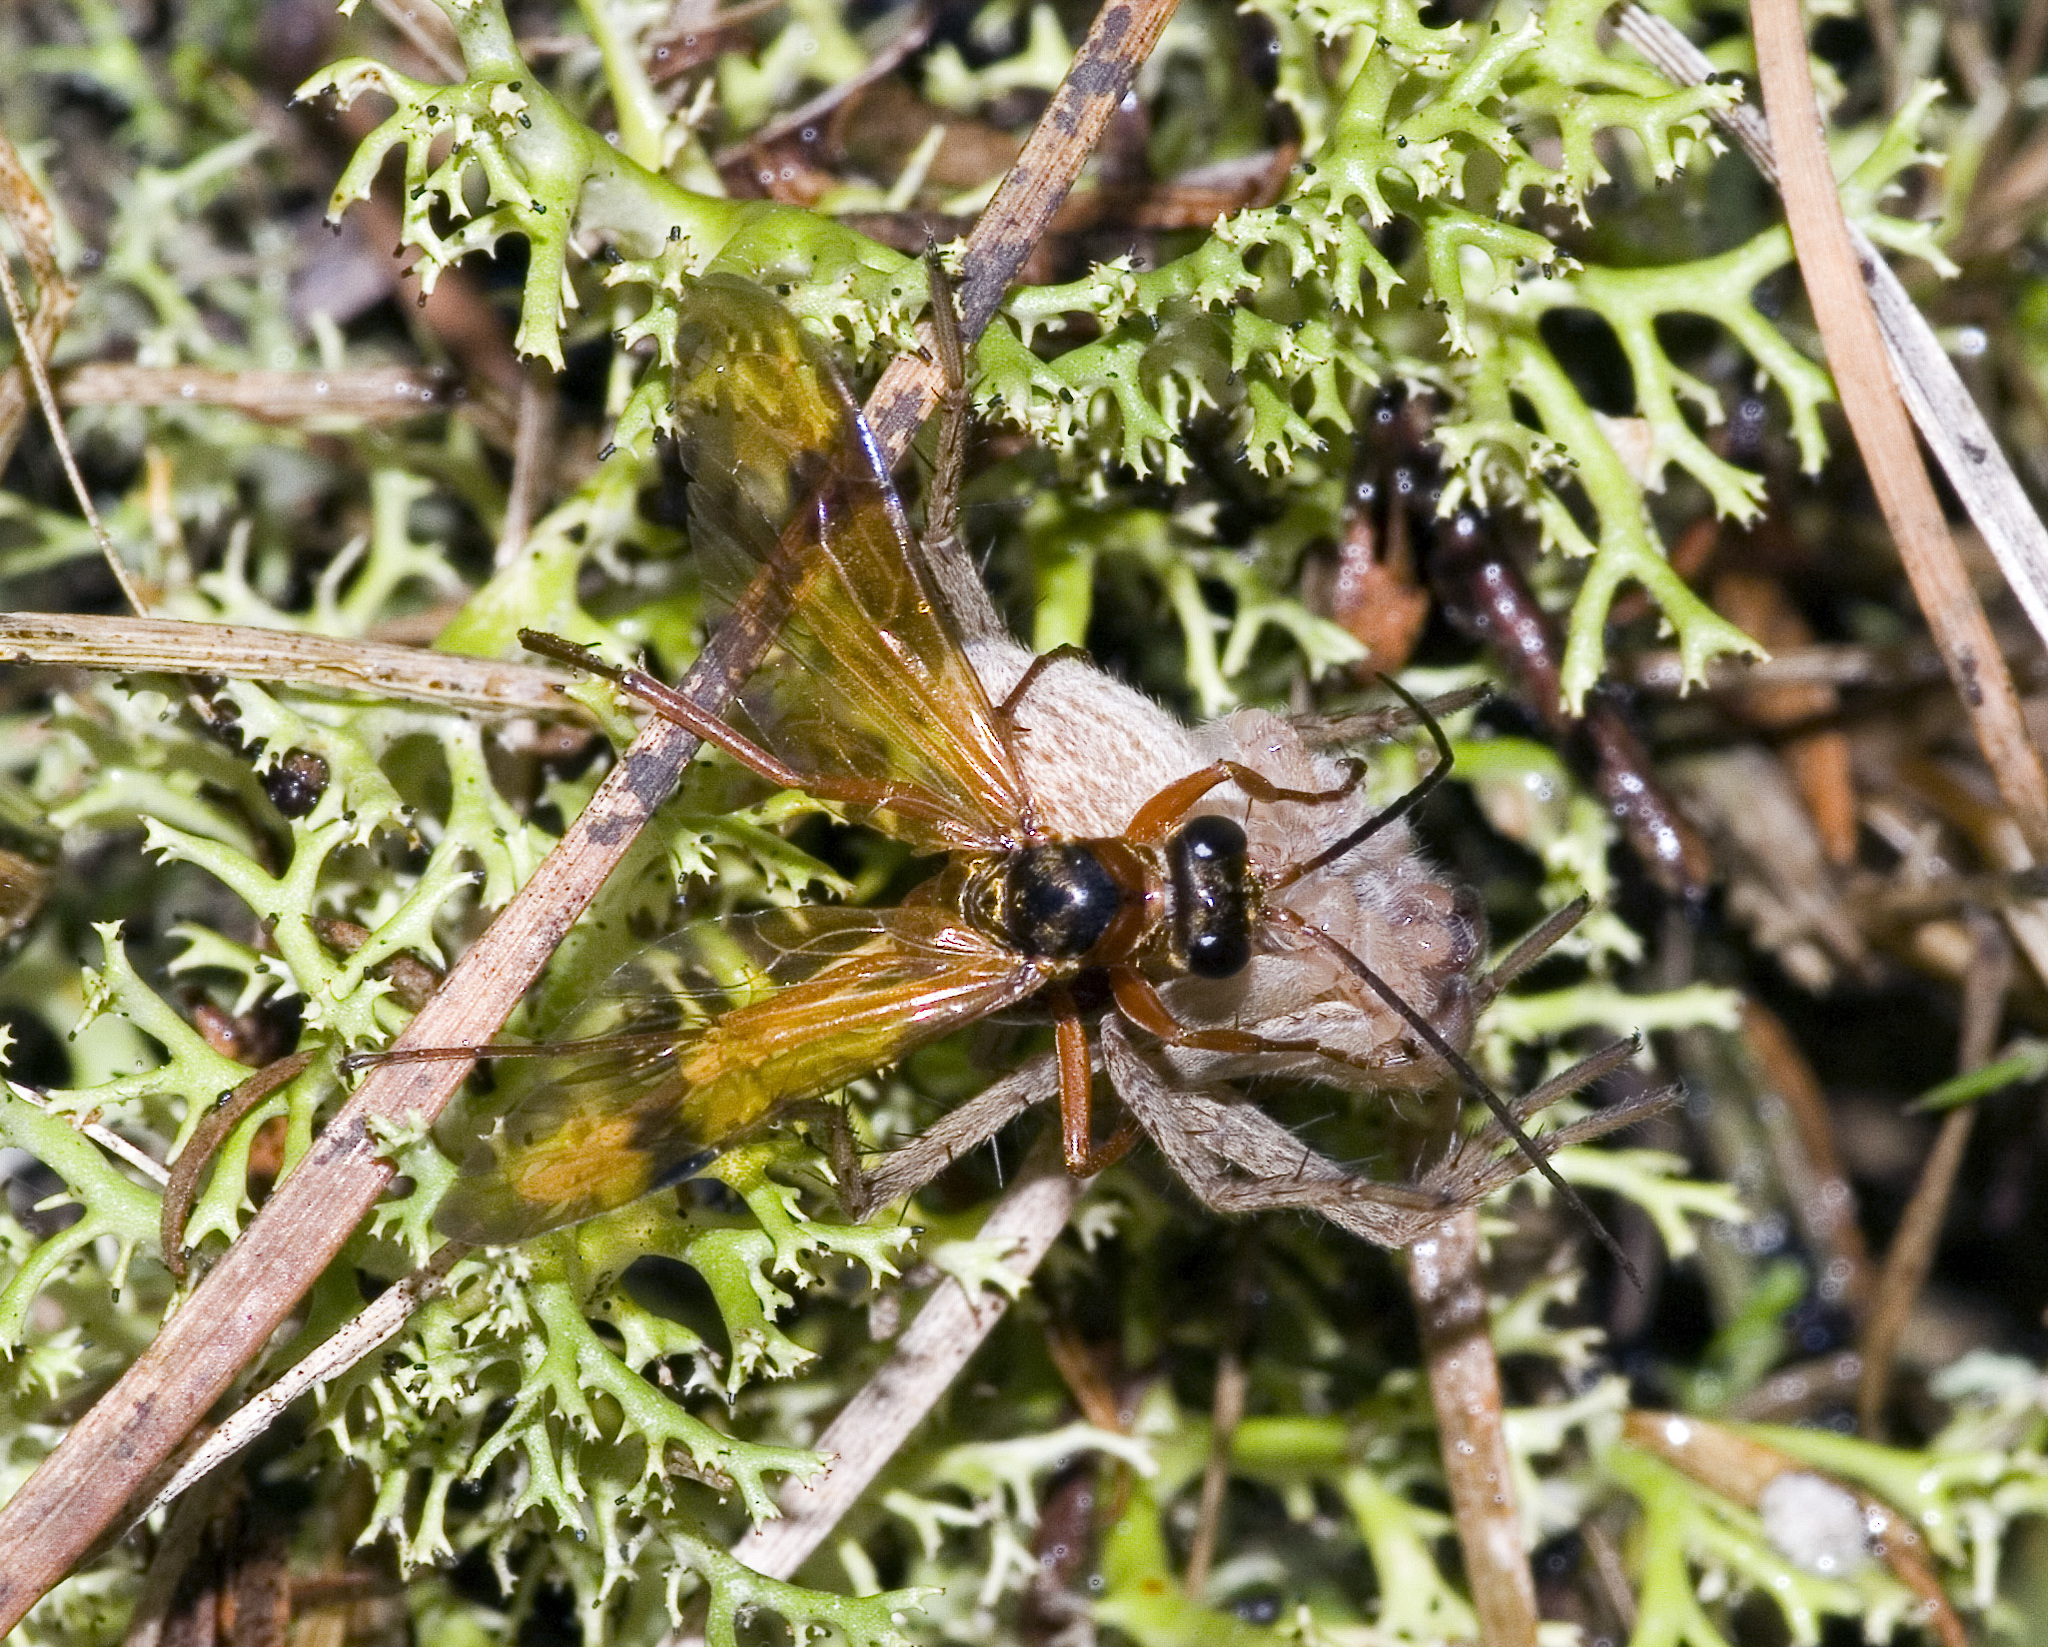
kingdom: Animalia
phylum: Arthropoda
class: Insecta
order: Hymenoptera
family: Pompilidae
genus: Sphictostethus
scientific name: Sphictostethus fugax
